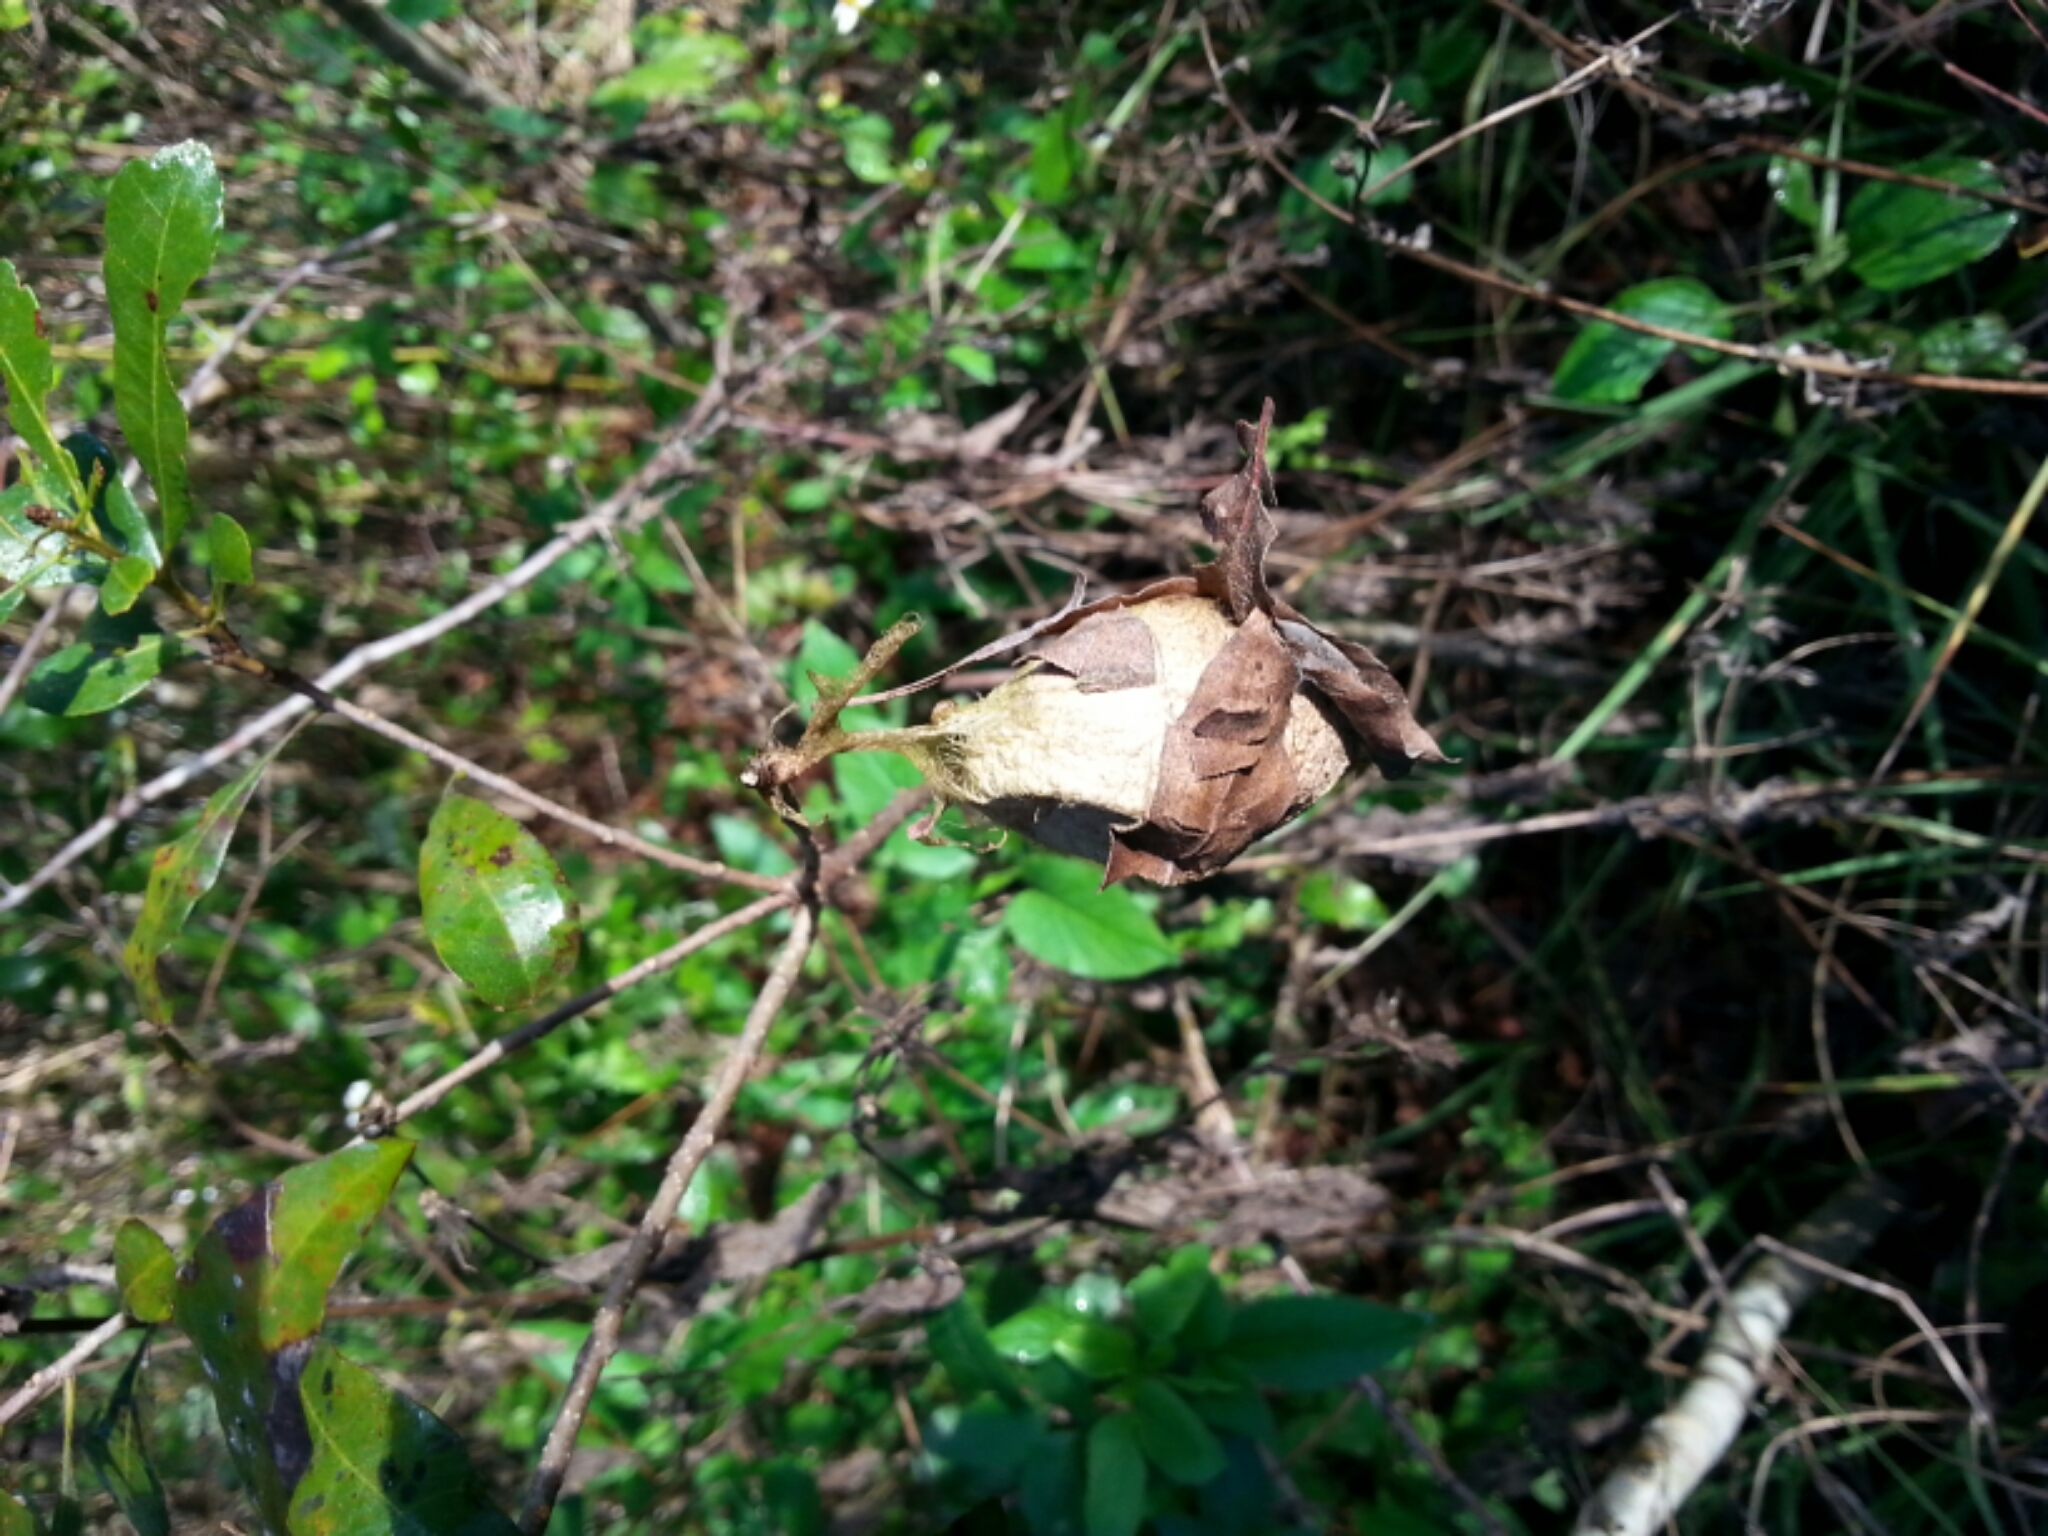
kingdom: Animalia
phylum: Arthropoda
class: Insecta
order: Lepidoptera
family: Saturniidae
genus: Antheraea
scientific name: Antheraea polyphemus
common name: Polyphemus moth
